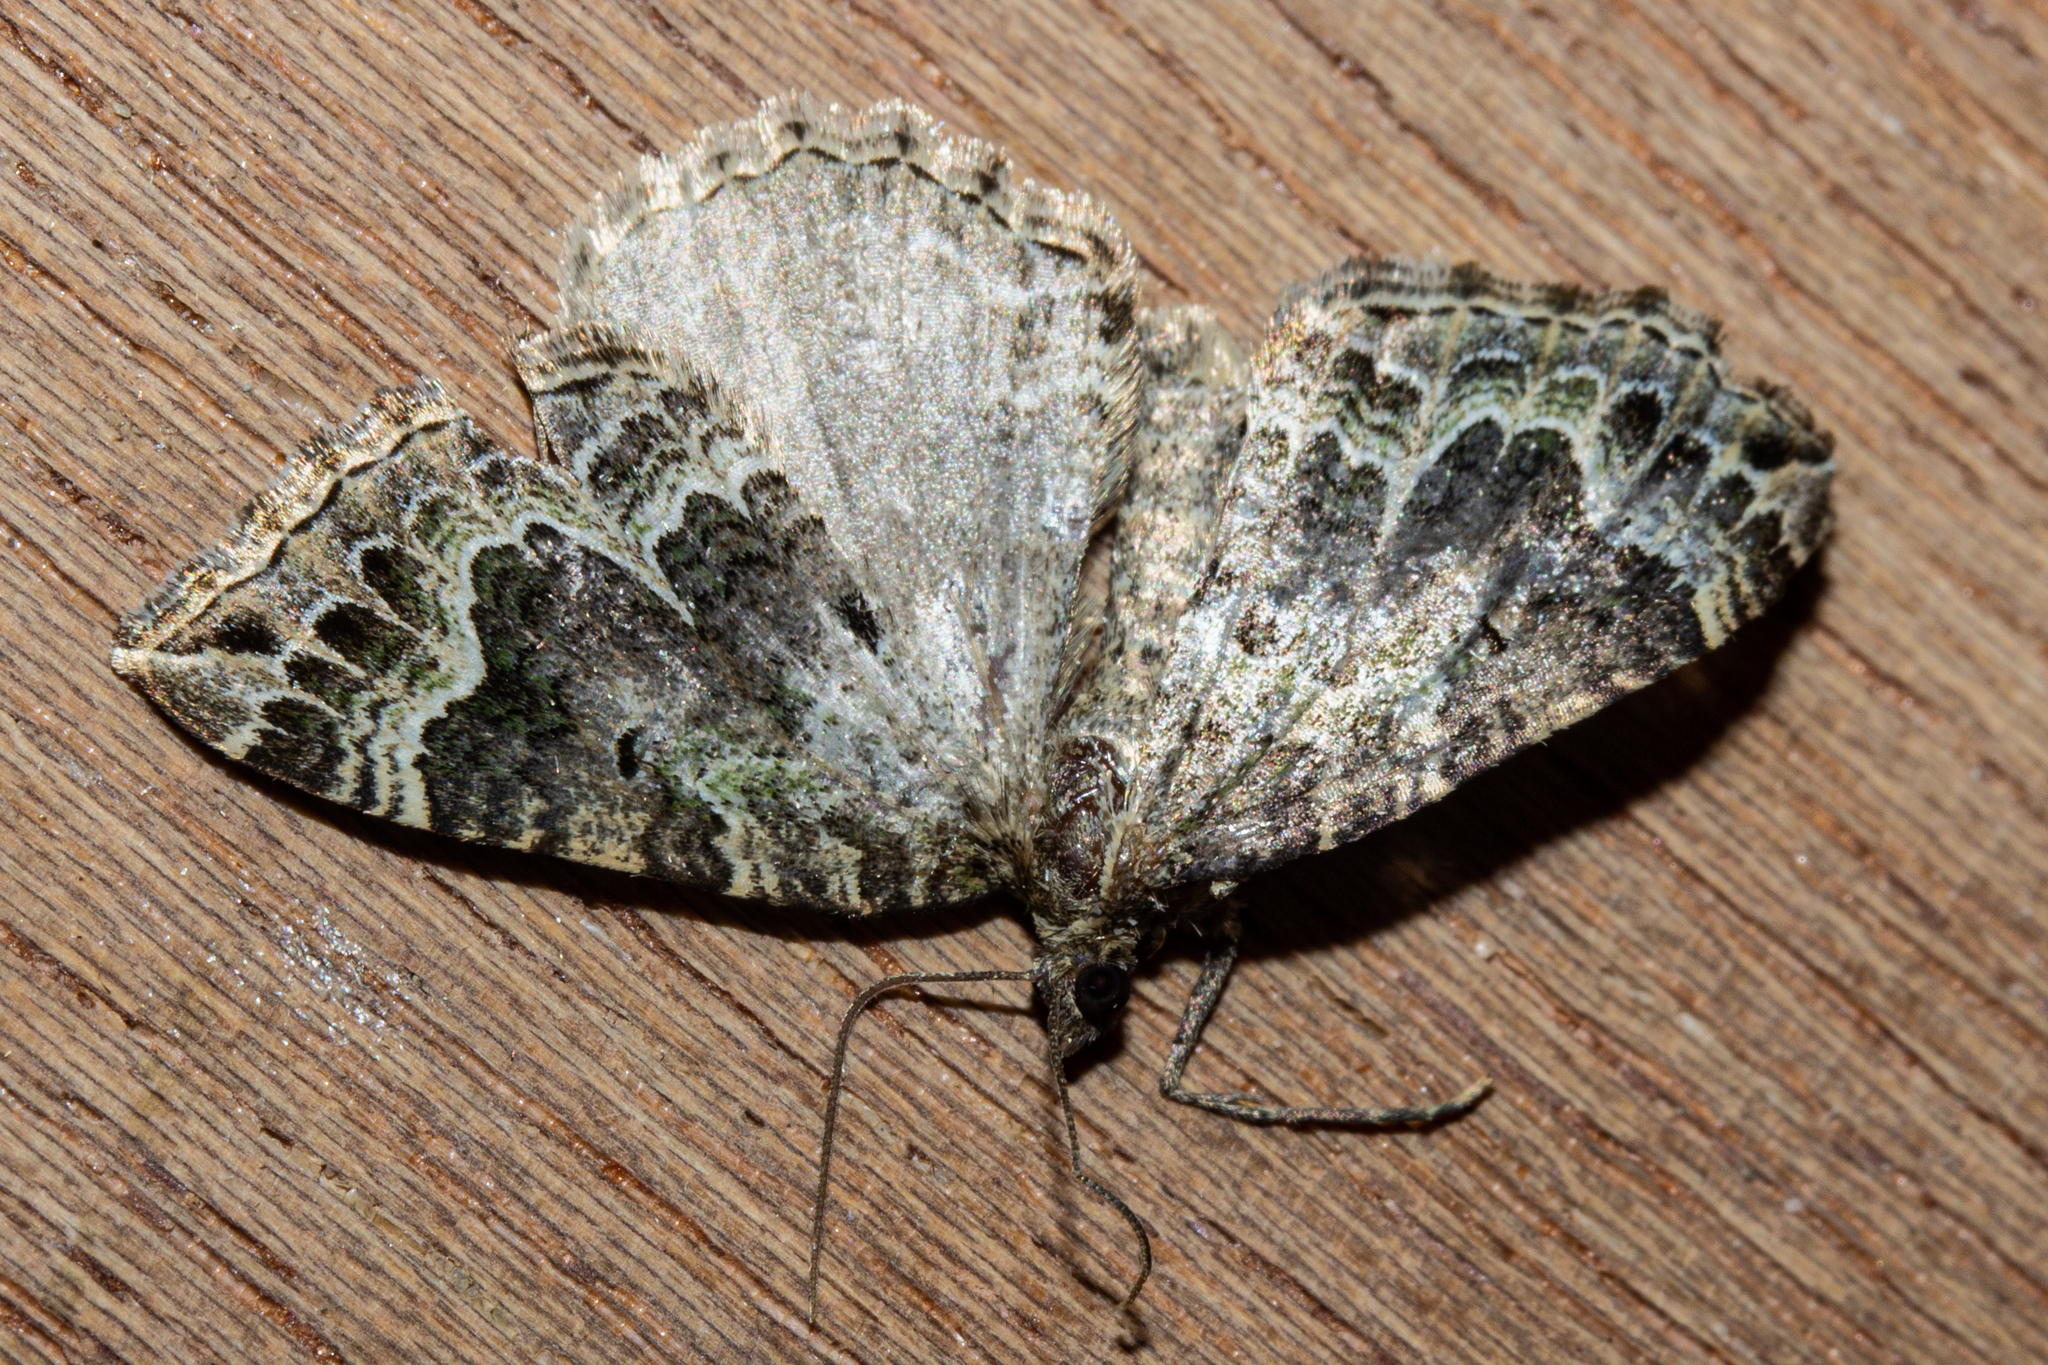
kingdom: Animalia
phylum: Arthropoda
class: Insecta
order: Lepidoptera
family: Geometridae
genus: Hydriomena
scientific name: Hydriomena rixata
